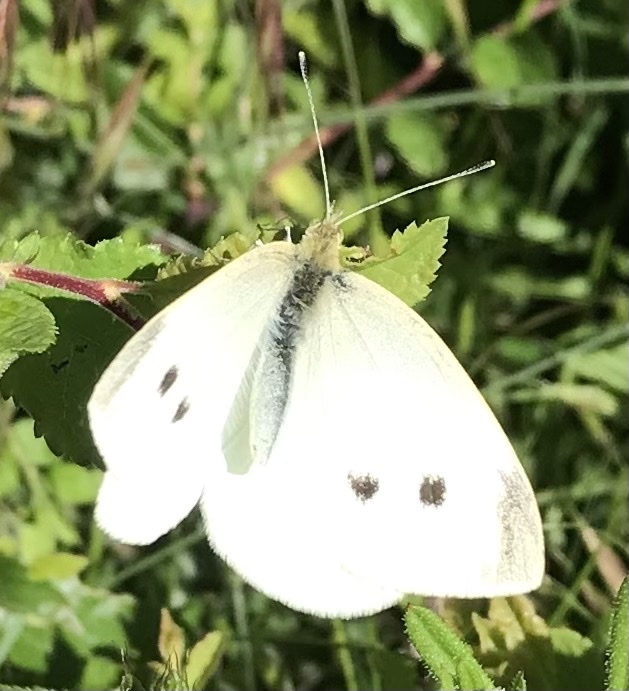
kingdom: Animalia
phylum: Arthropoda
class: Insecta
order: Lepidoptera
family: Pieridae
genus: Pieris
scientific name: Pieris rapae
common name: Small white
